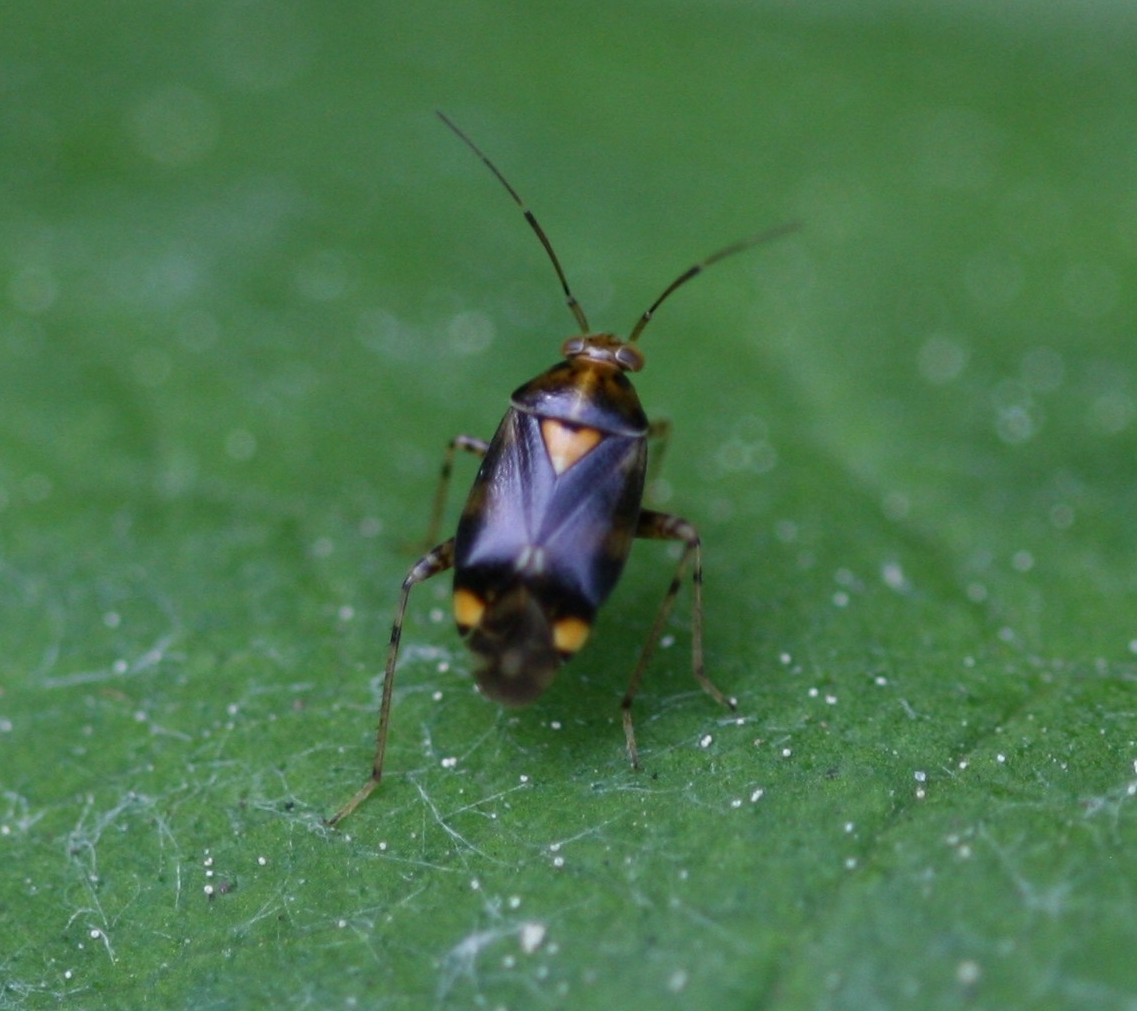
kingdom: Animalia
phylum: Arthropoda
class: Insecta
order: Hemiptera
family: Miridae
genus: Liocoris
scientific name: Liocoris tripustulatus
